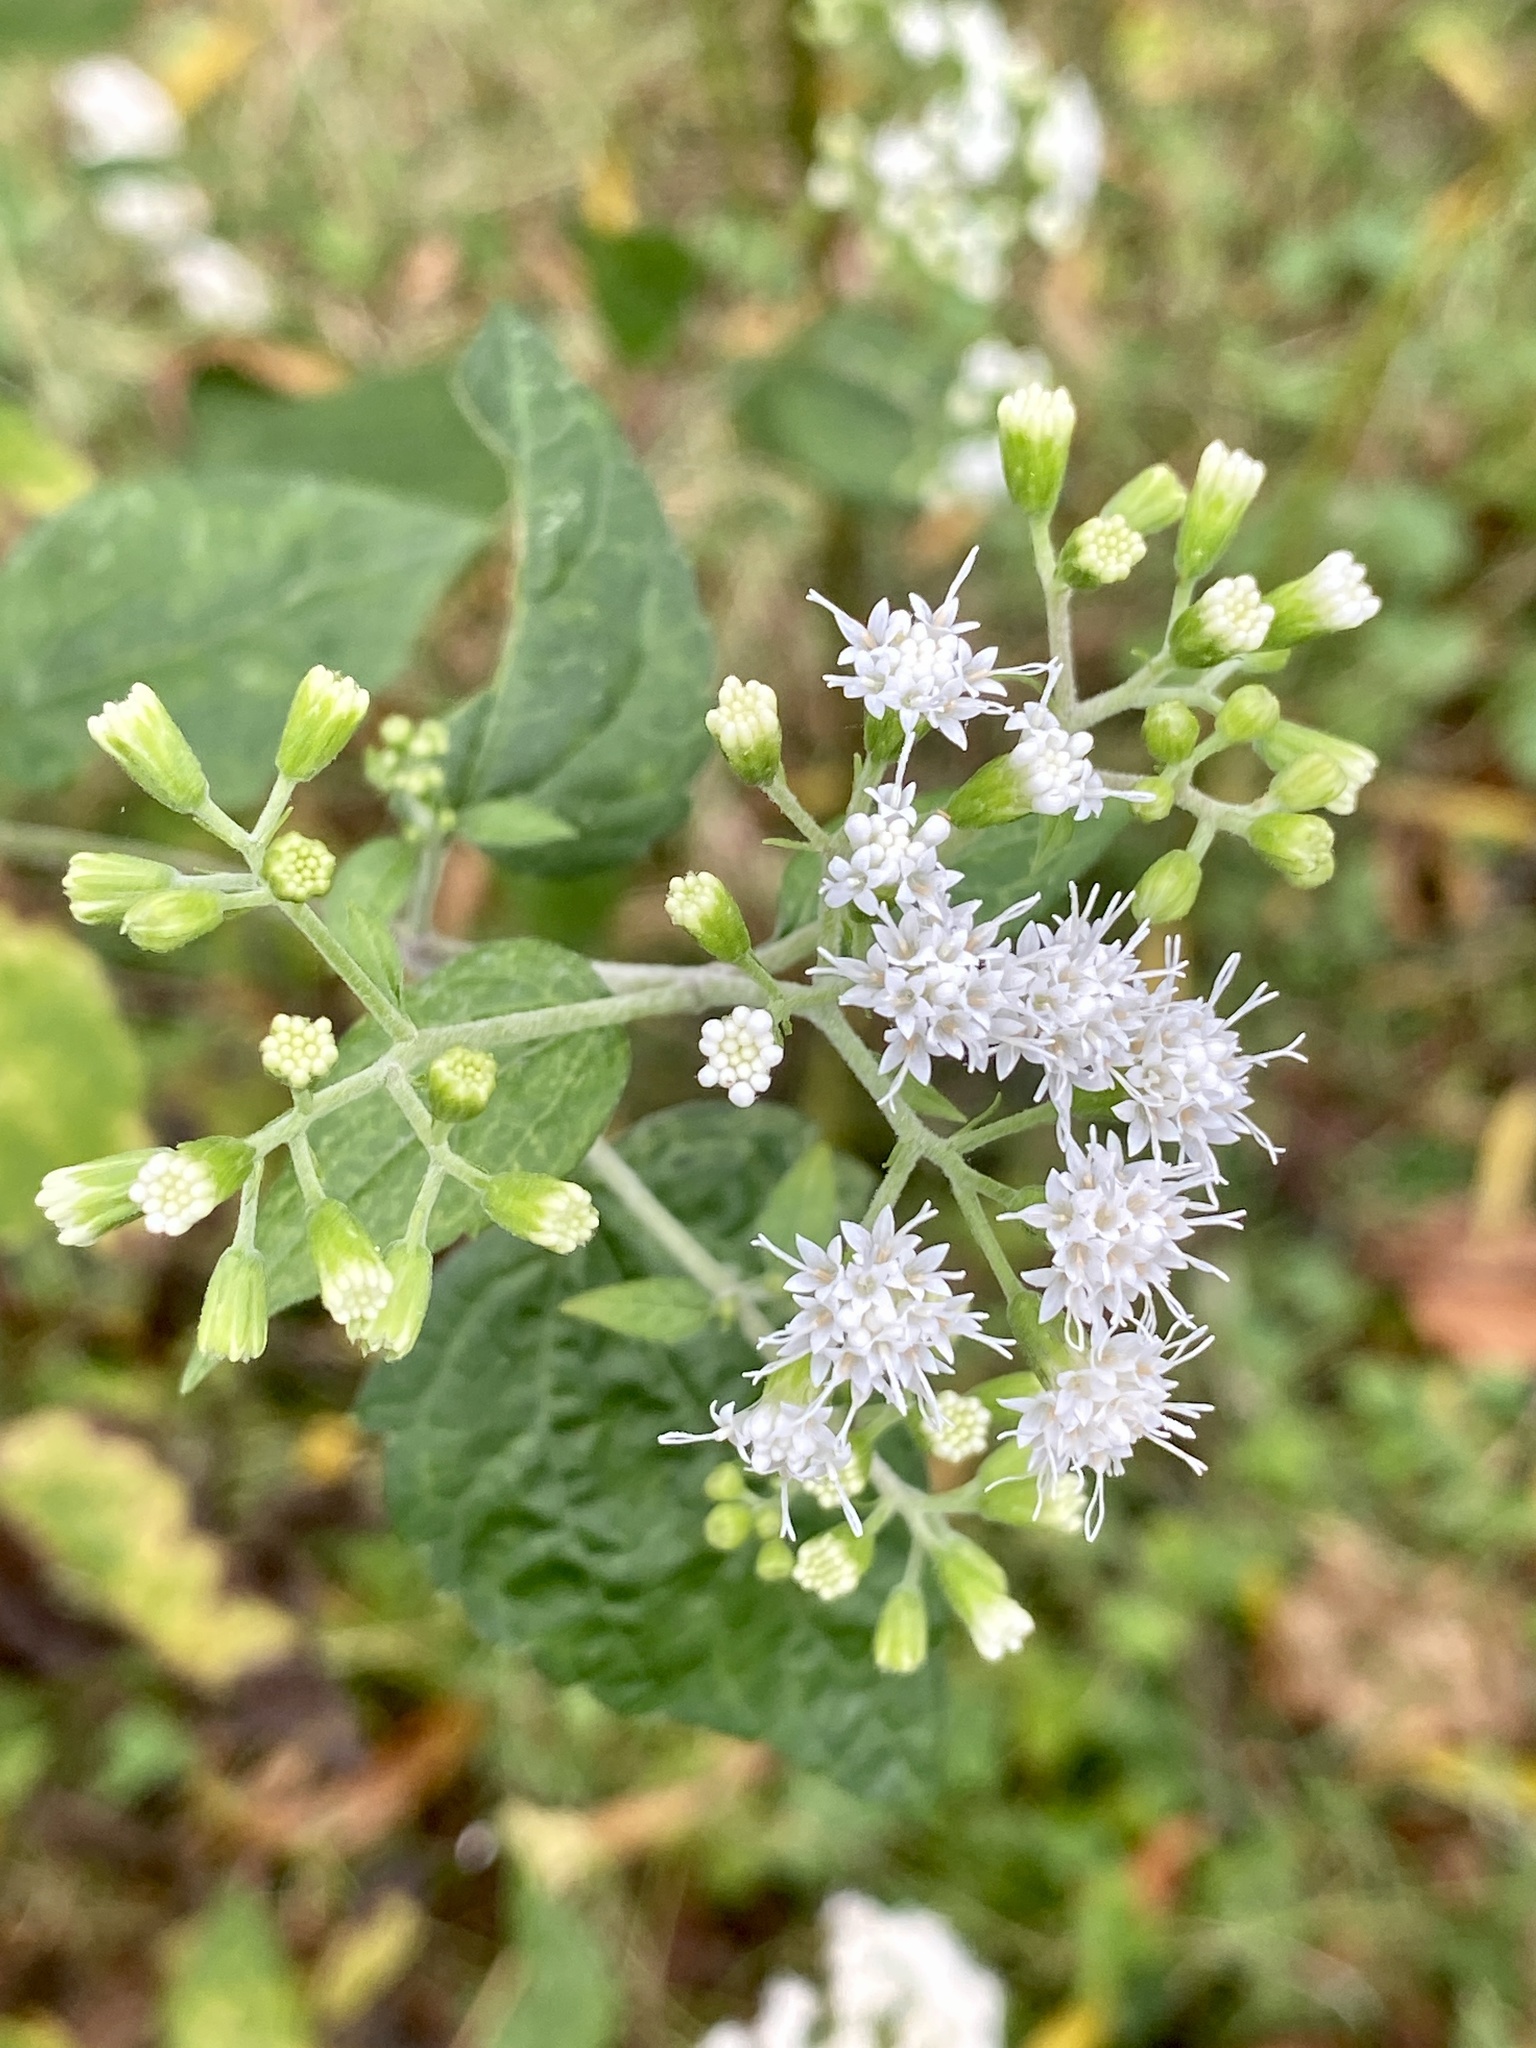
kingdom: Plantae
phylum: Tracheophyta
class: Magnoliopsida
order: Asterales
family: Asteraceae
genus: Ageratina
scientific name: Ageratina altissima
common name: White snakeroot
